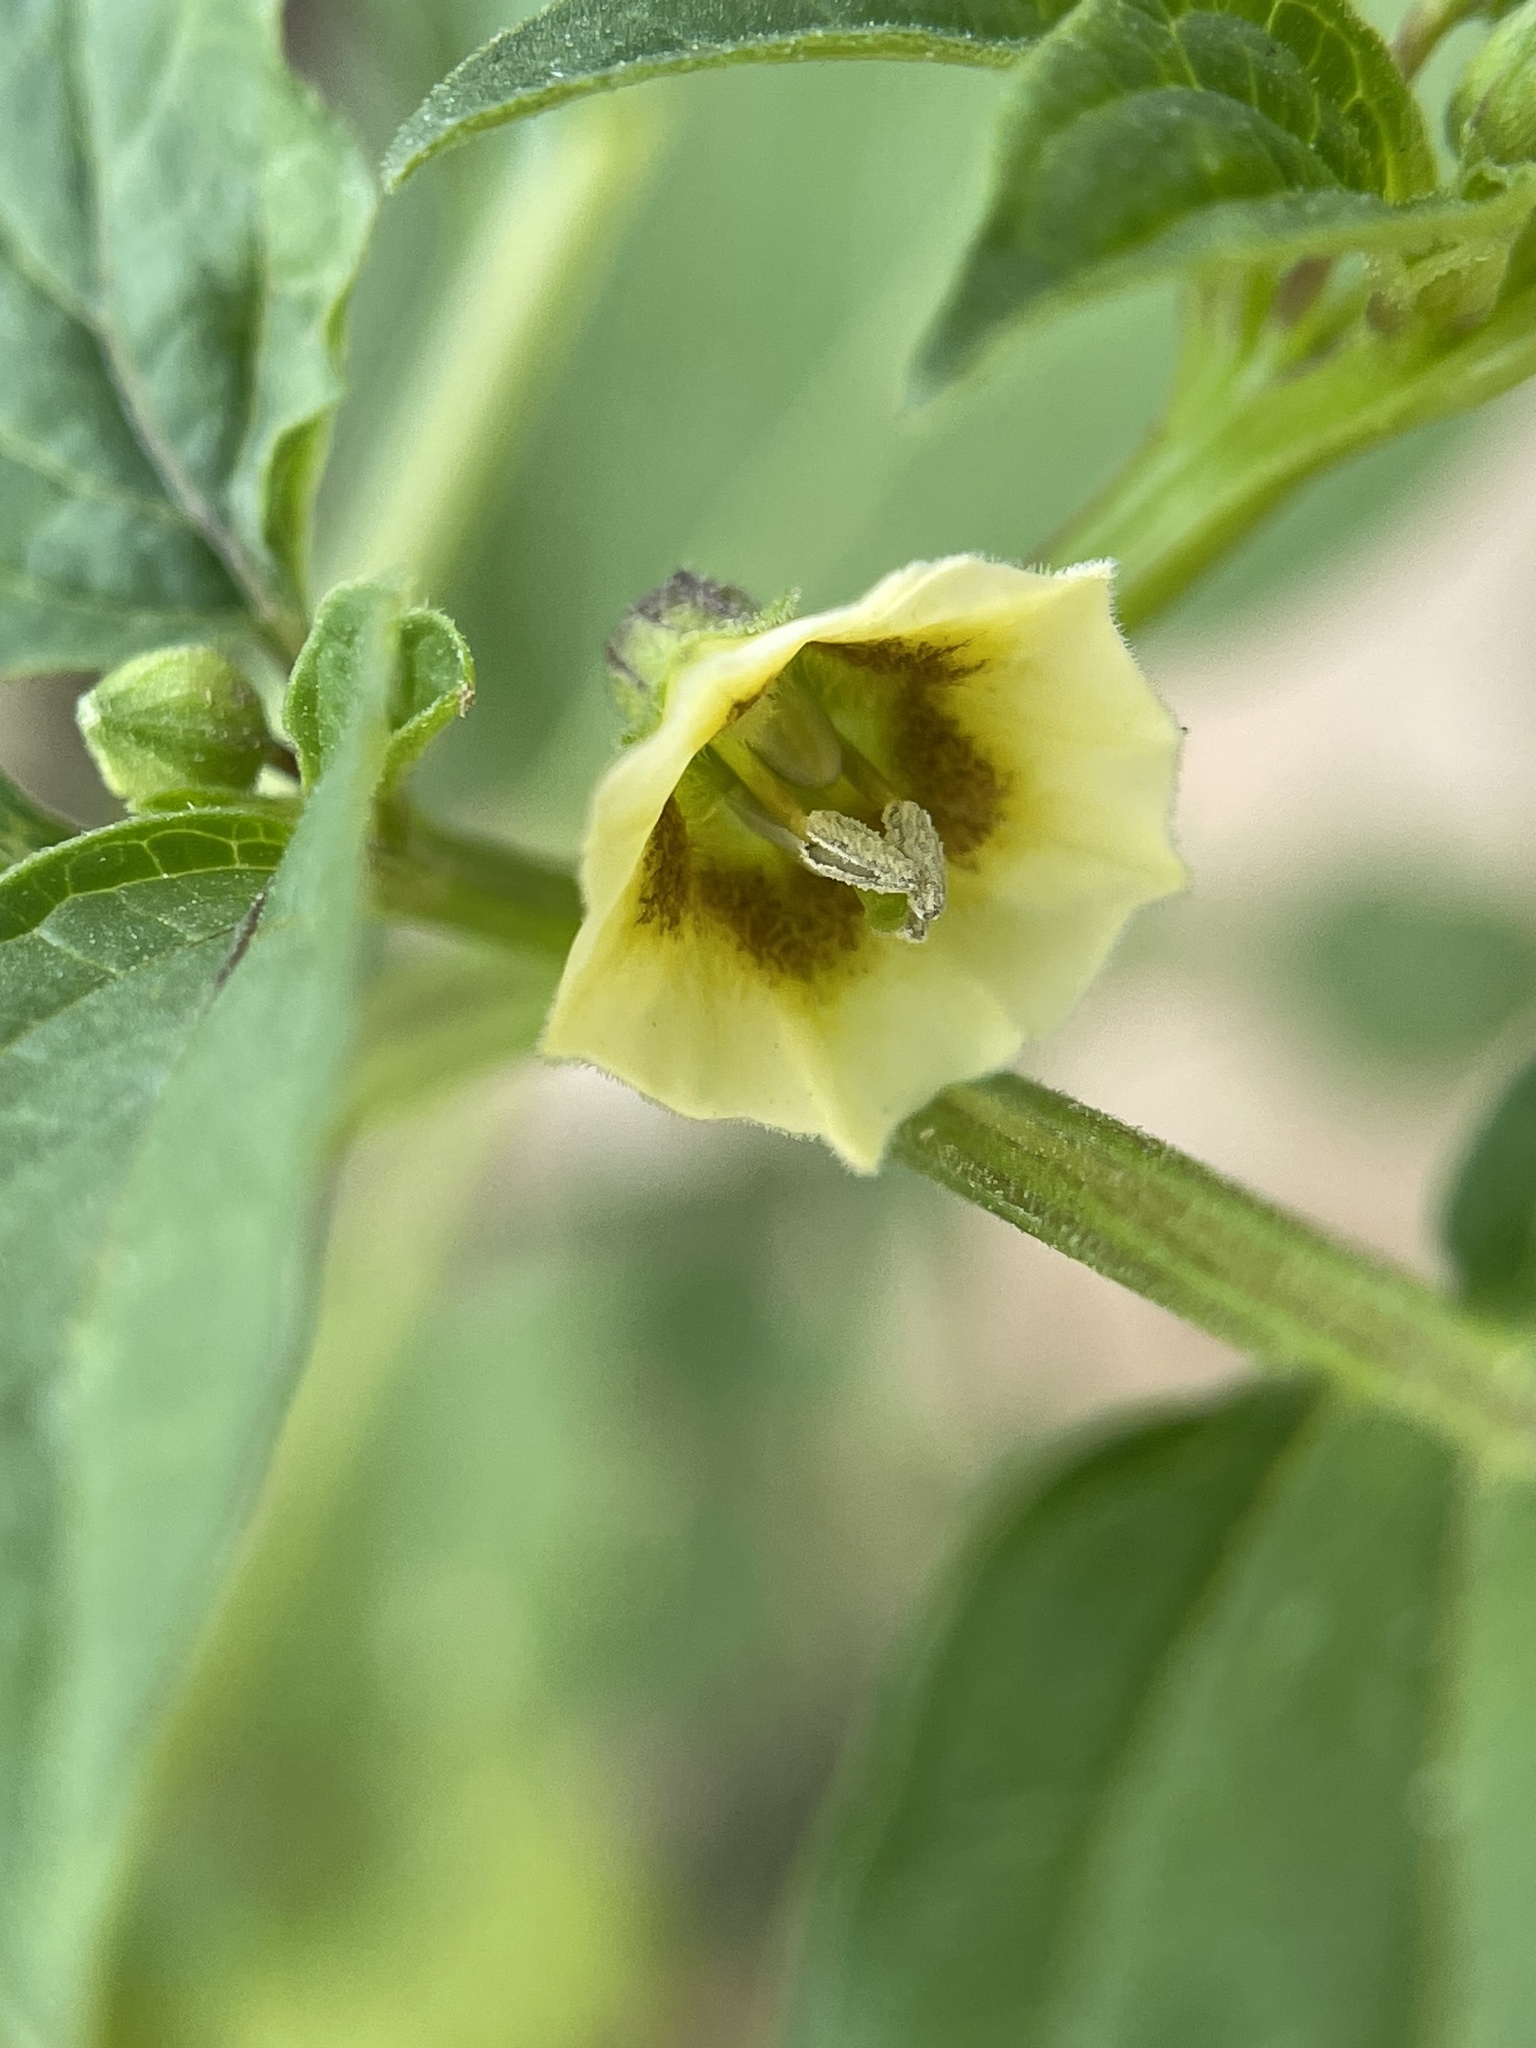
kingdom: Plantae
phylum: Tracheophyta
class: Magnoliopsida
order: Solanales
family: Solanaceae
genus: Physalis
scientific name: Physalis angulata
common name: Angular winter-cherry
